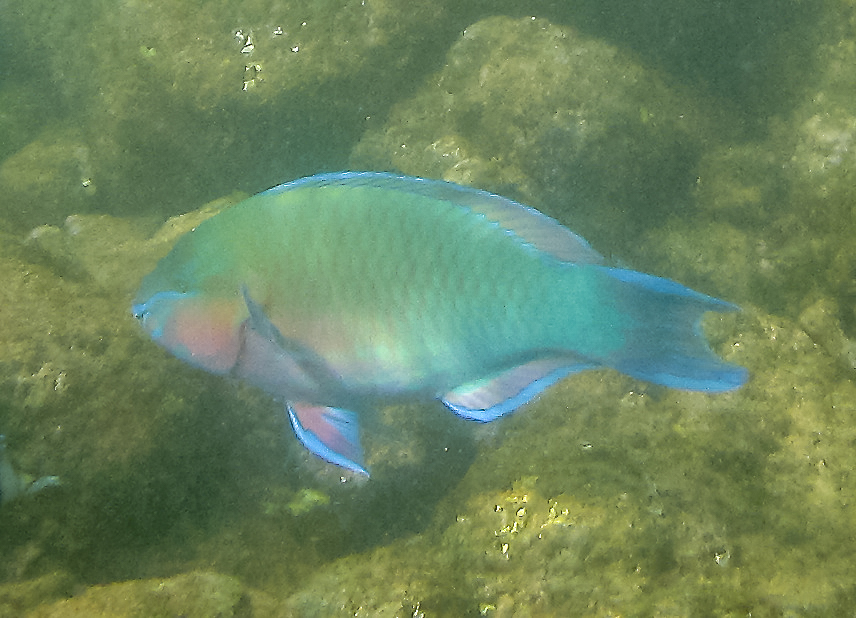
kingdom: Animalia
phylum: Chordata
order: Perciformes
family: Scaridae
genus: Scarus
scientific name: Scarus psittacus
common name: Palenose parrotfish
